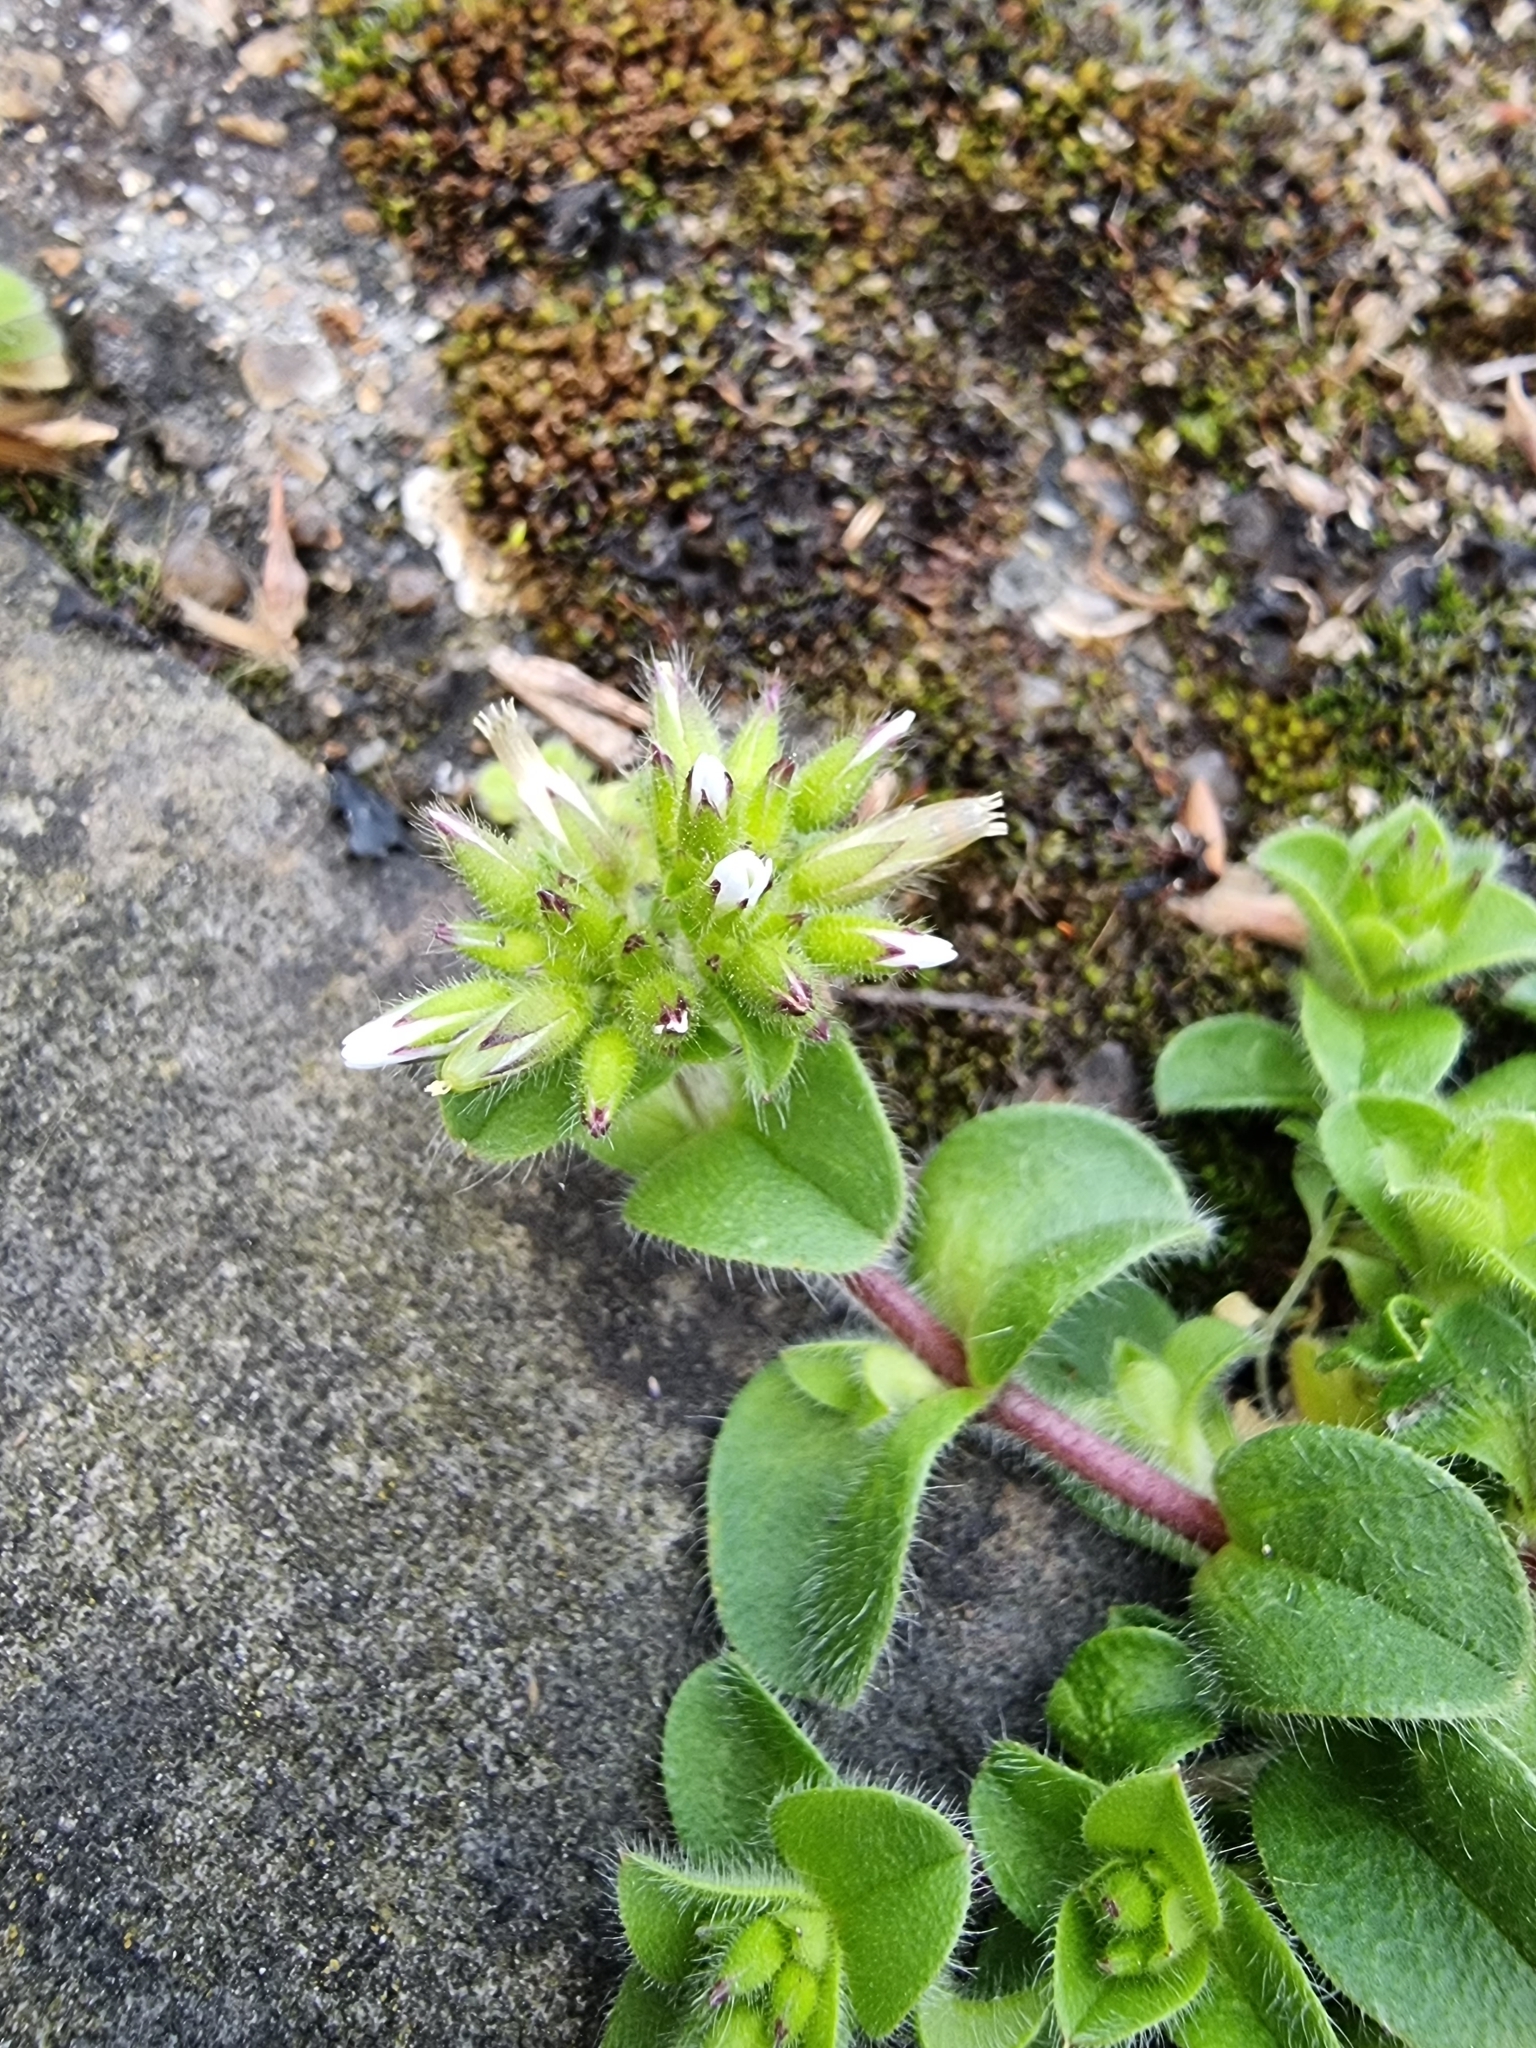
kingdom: Plantae
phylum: Tracheophyta
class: Magnoliopsida
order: Caryophyllales
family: Caryophyllaceae
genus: Cerastium
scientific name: Cerastium glomeratum
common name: Sticky chickweed
